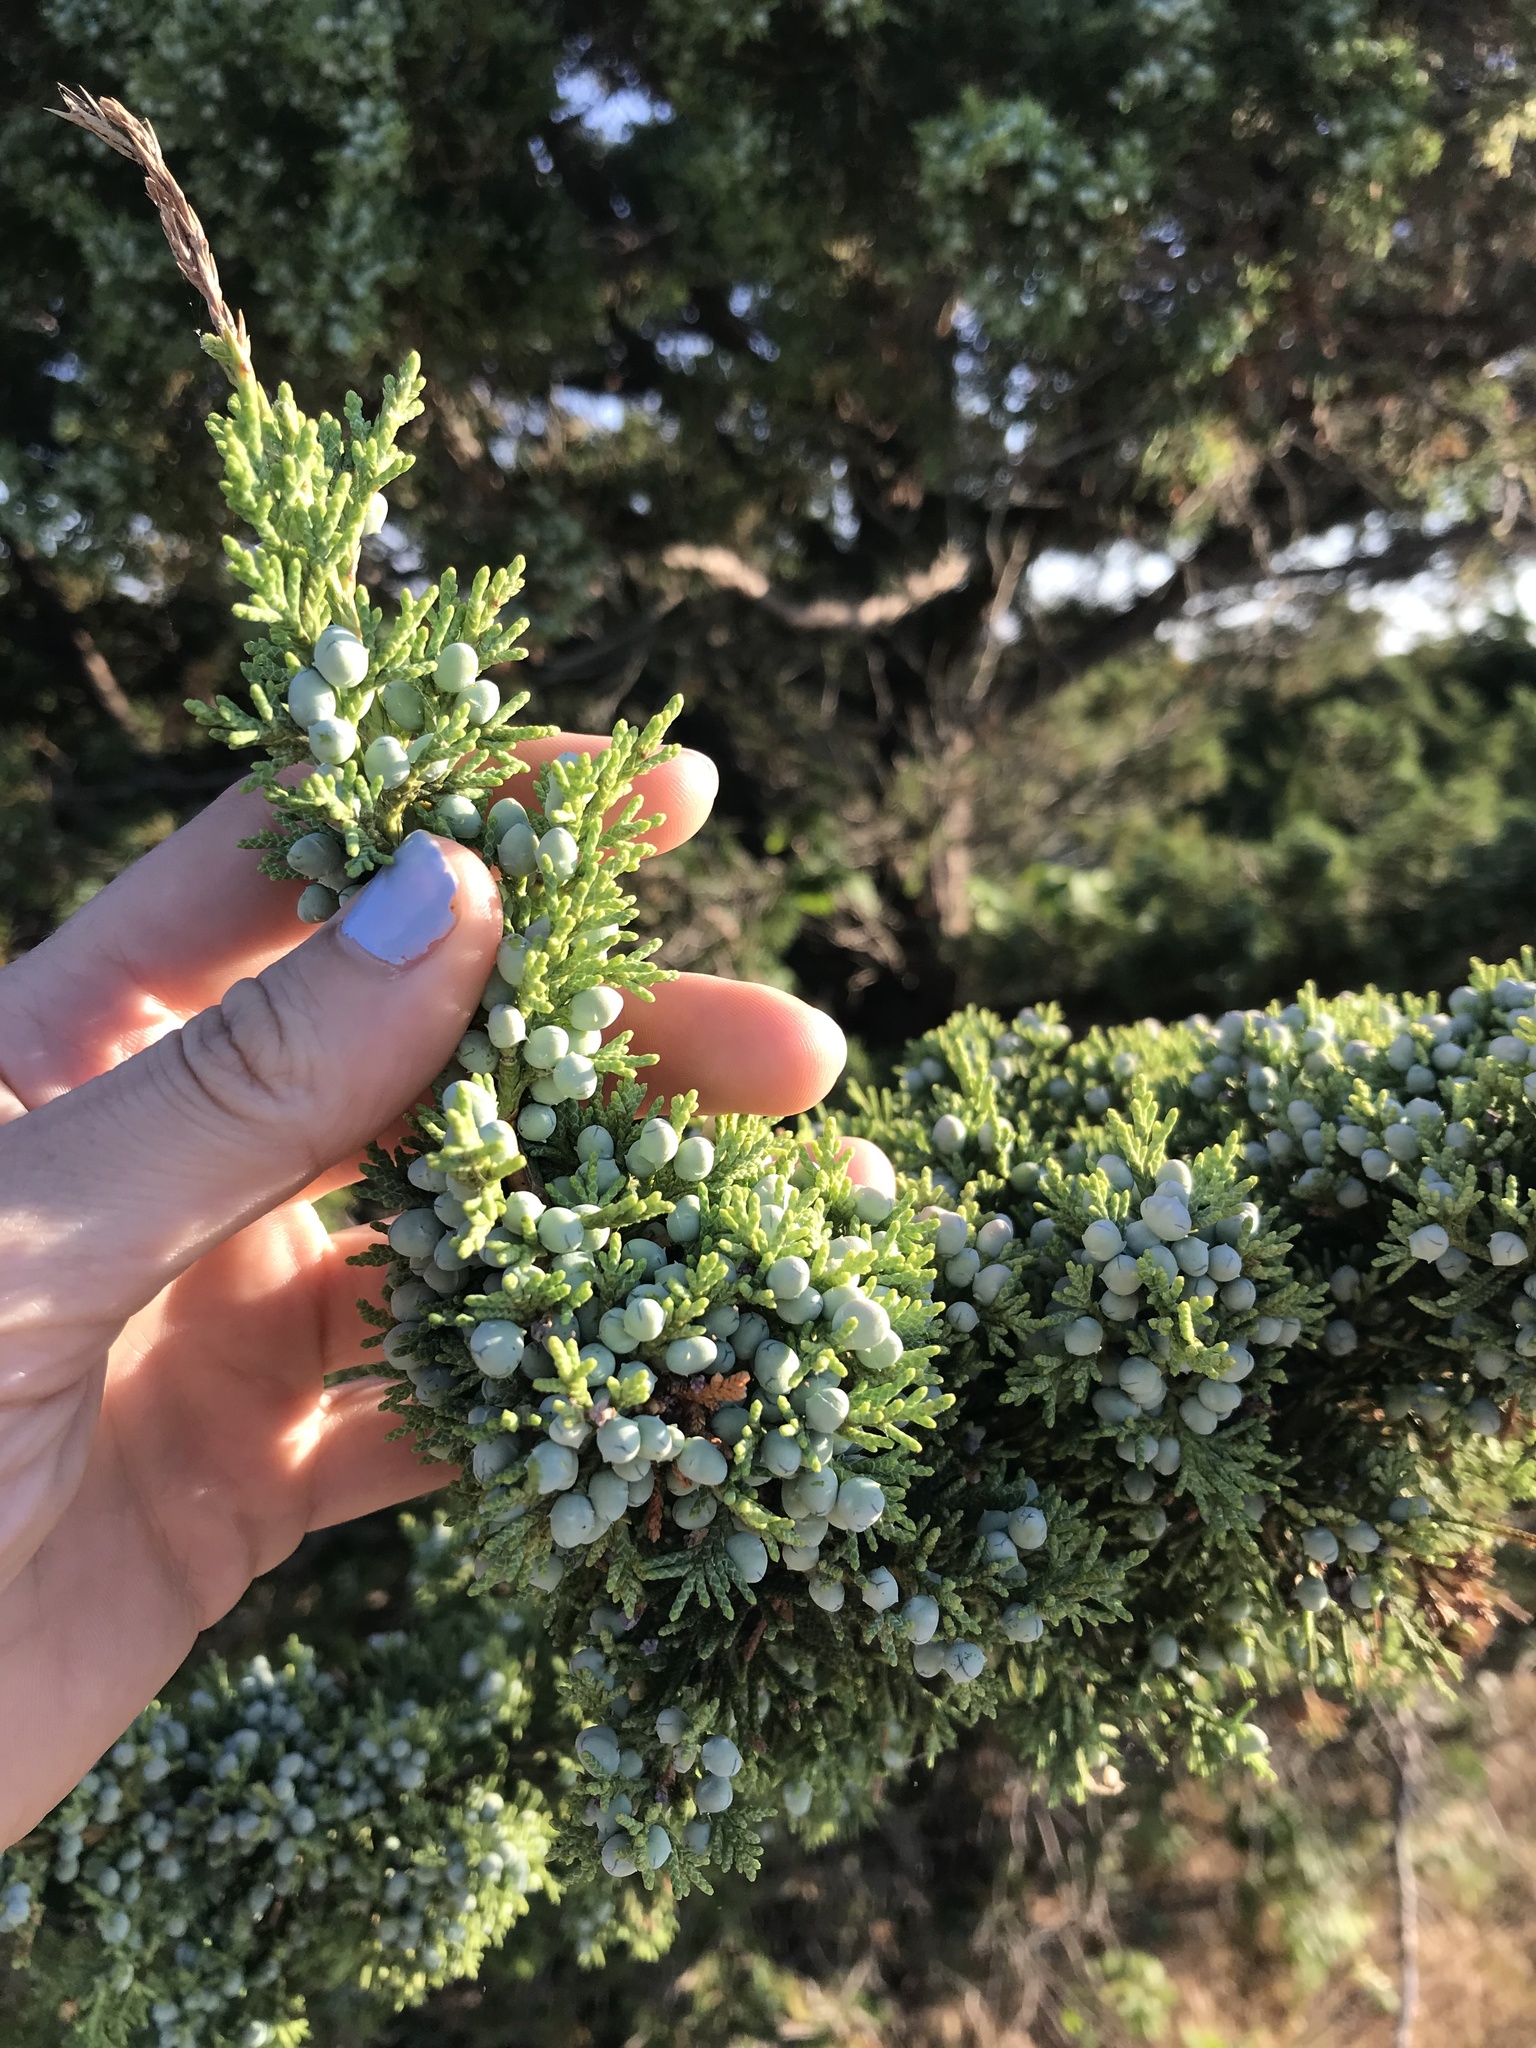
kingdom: Plantae
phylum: Tracheophyta
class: Pinopsida
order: Pinales
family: Cupressaceae
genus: Juniperus
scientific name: Juniperus virginiana
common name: Red juniper
